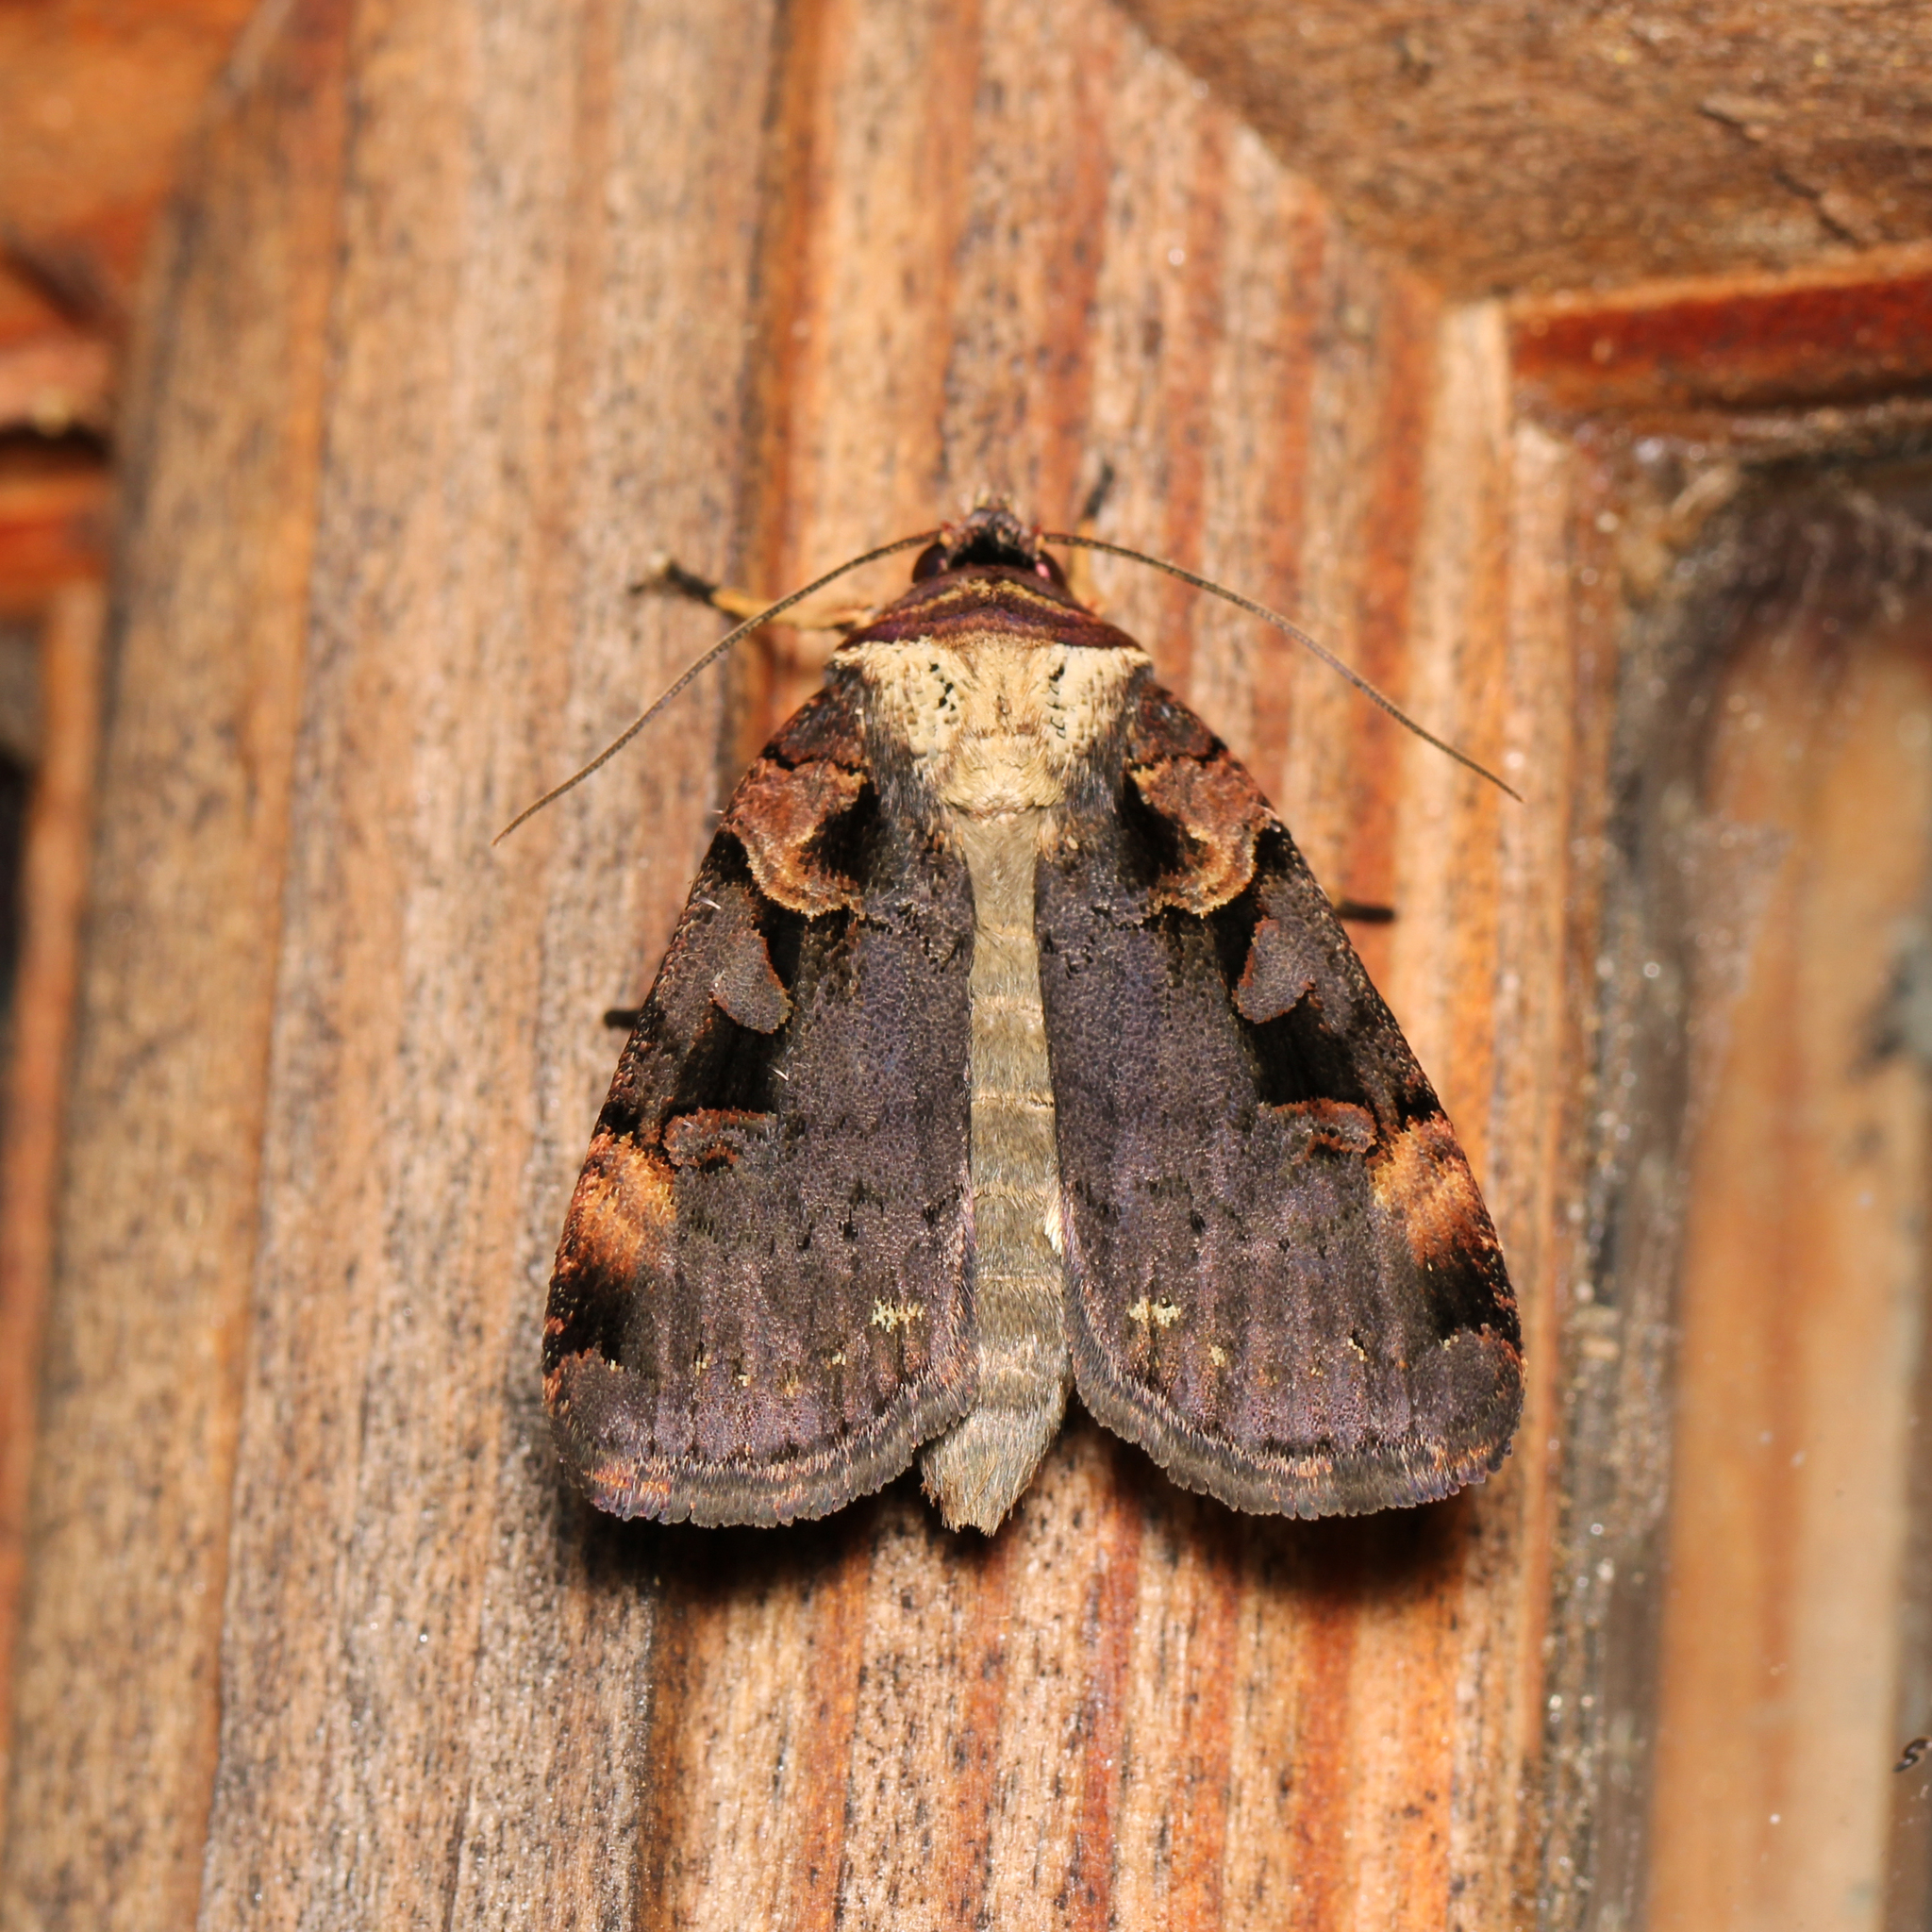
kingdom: Animalia
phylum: Arthropoda
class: Insecta
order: Lepidoptera
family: Noctuidae
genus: Pseudohermonassa
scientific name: Pseudohermonassa bicarnea
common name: Pink spotted dart
